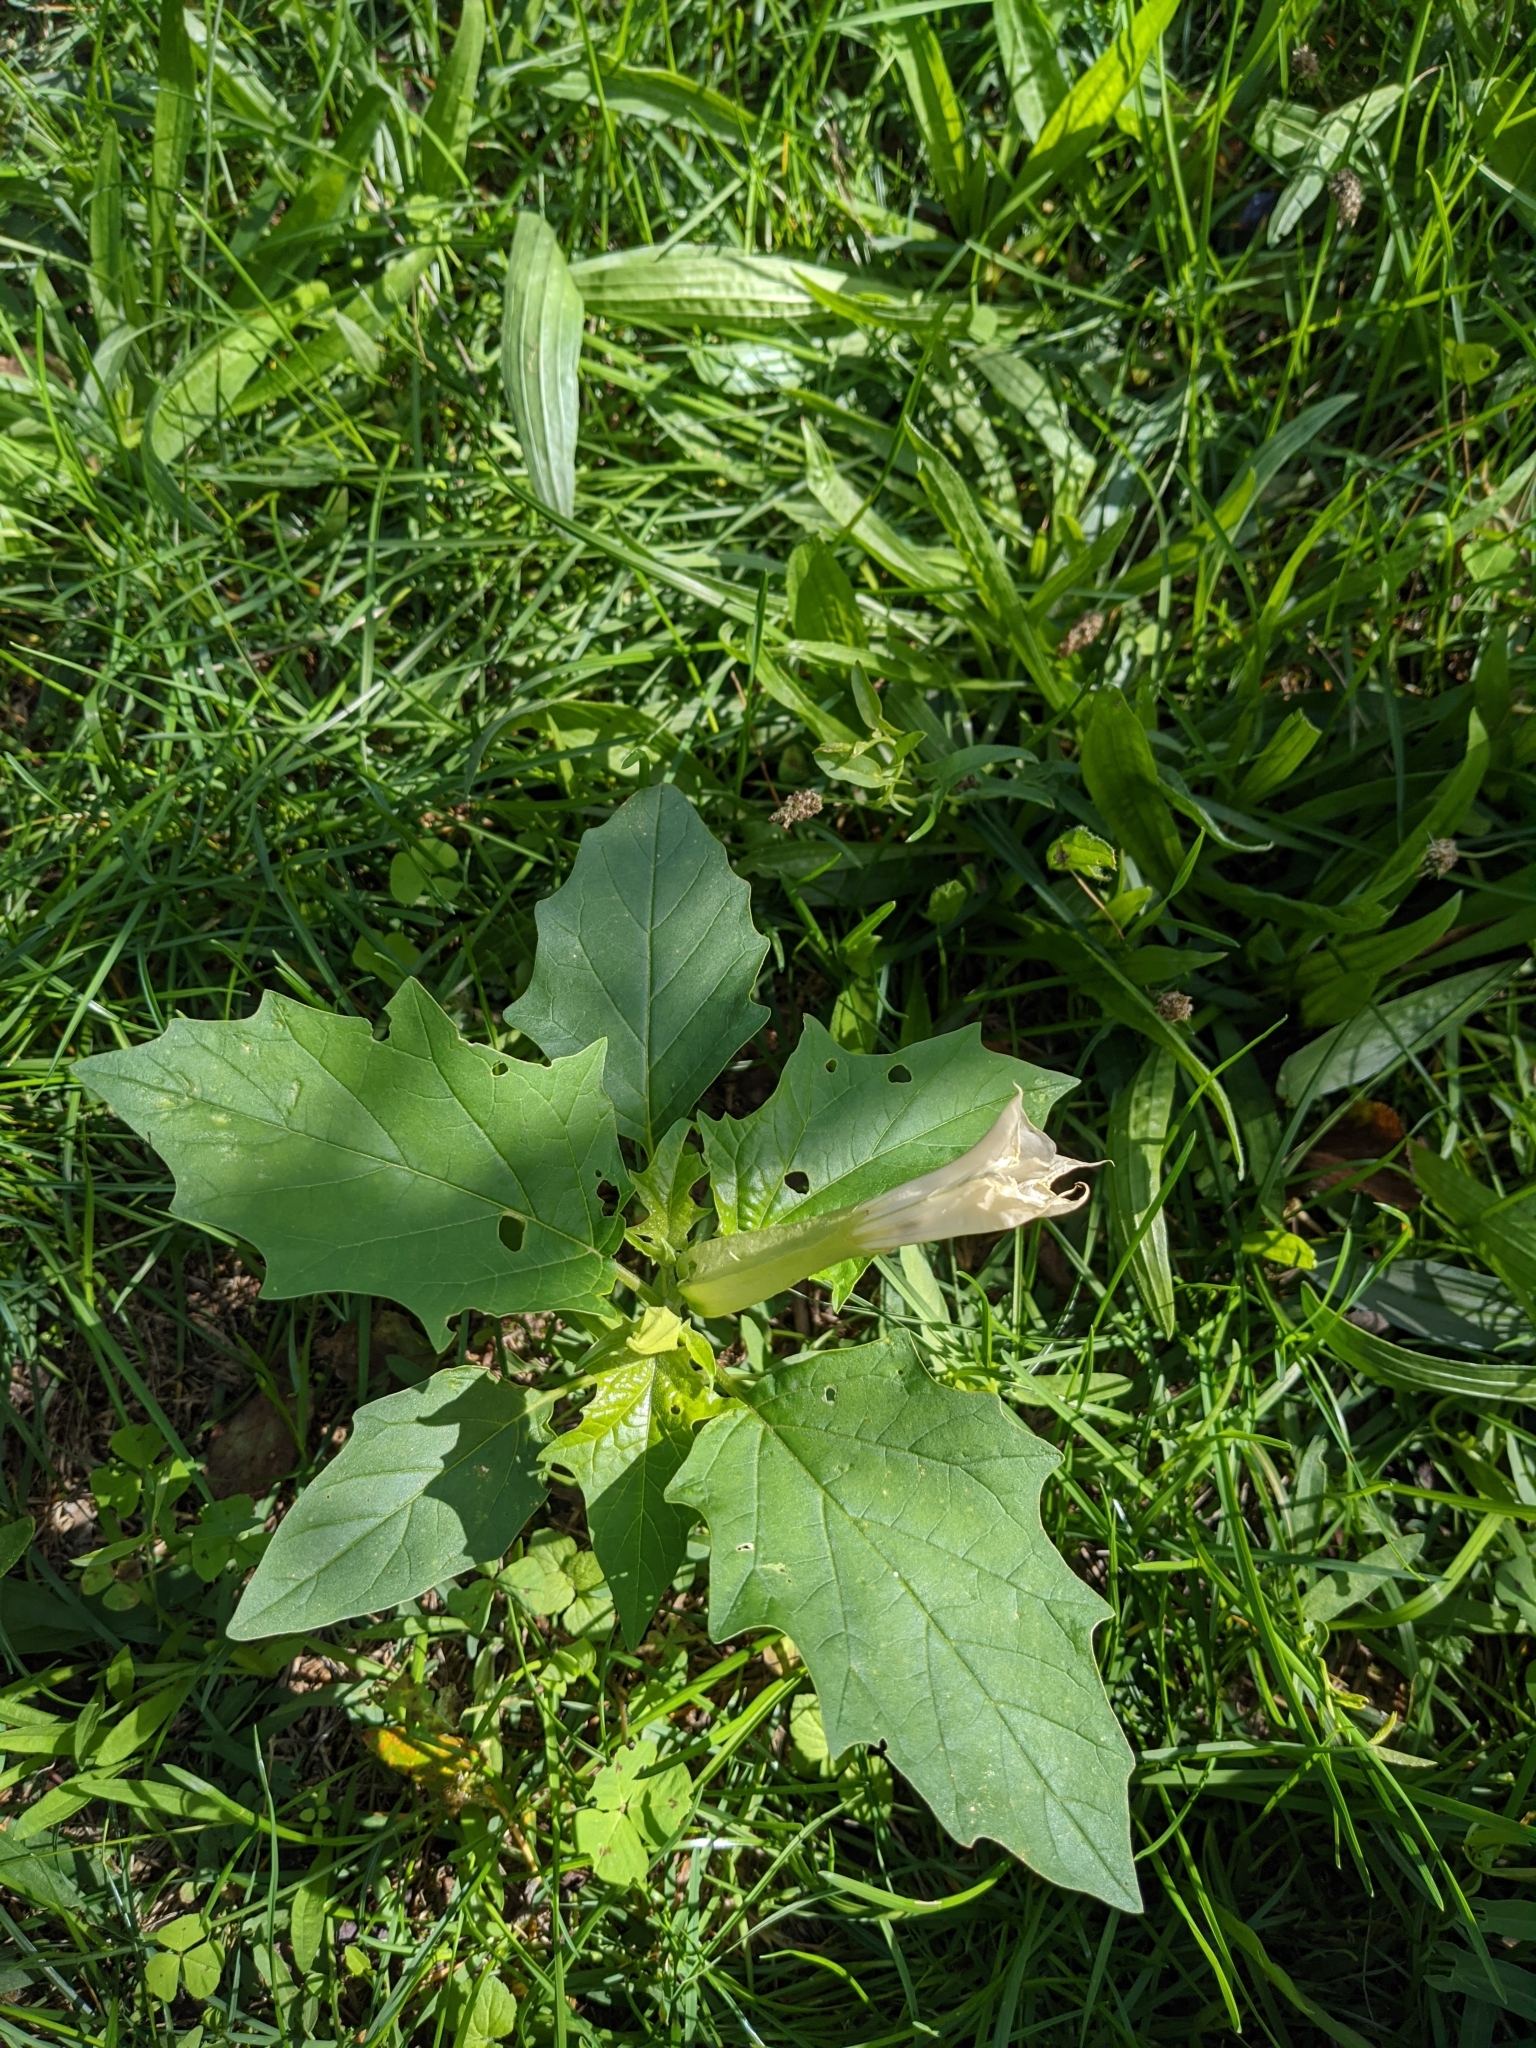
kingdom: Plantae
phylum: Tracheophyta
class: Magnoliopsida
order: Solanales
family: Solanaceae
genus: Datura
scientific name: Datura stramonium
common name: Thorn-apple
